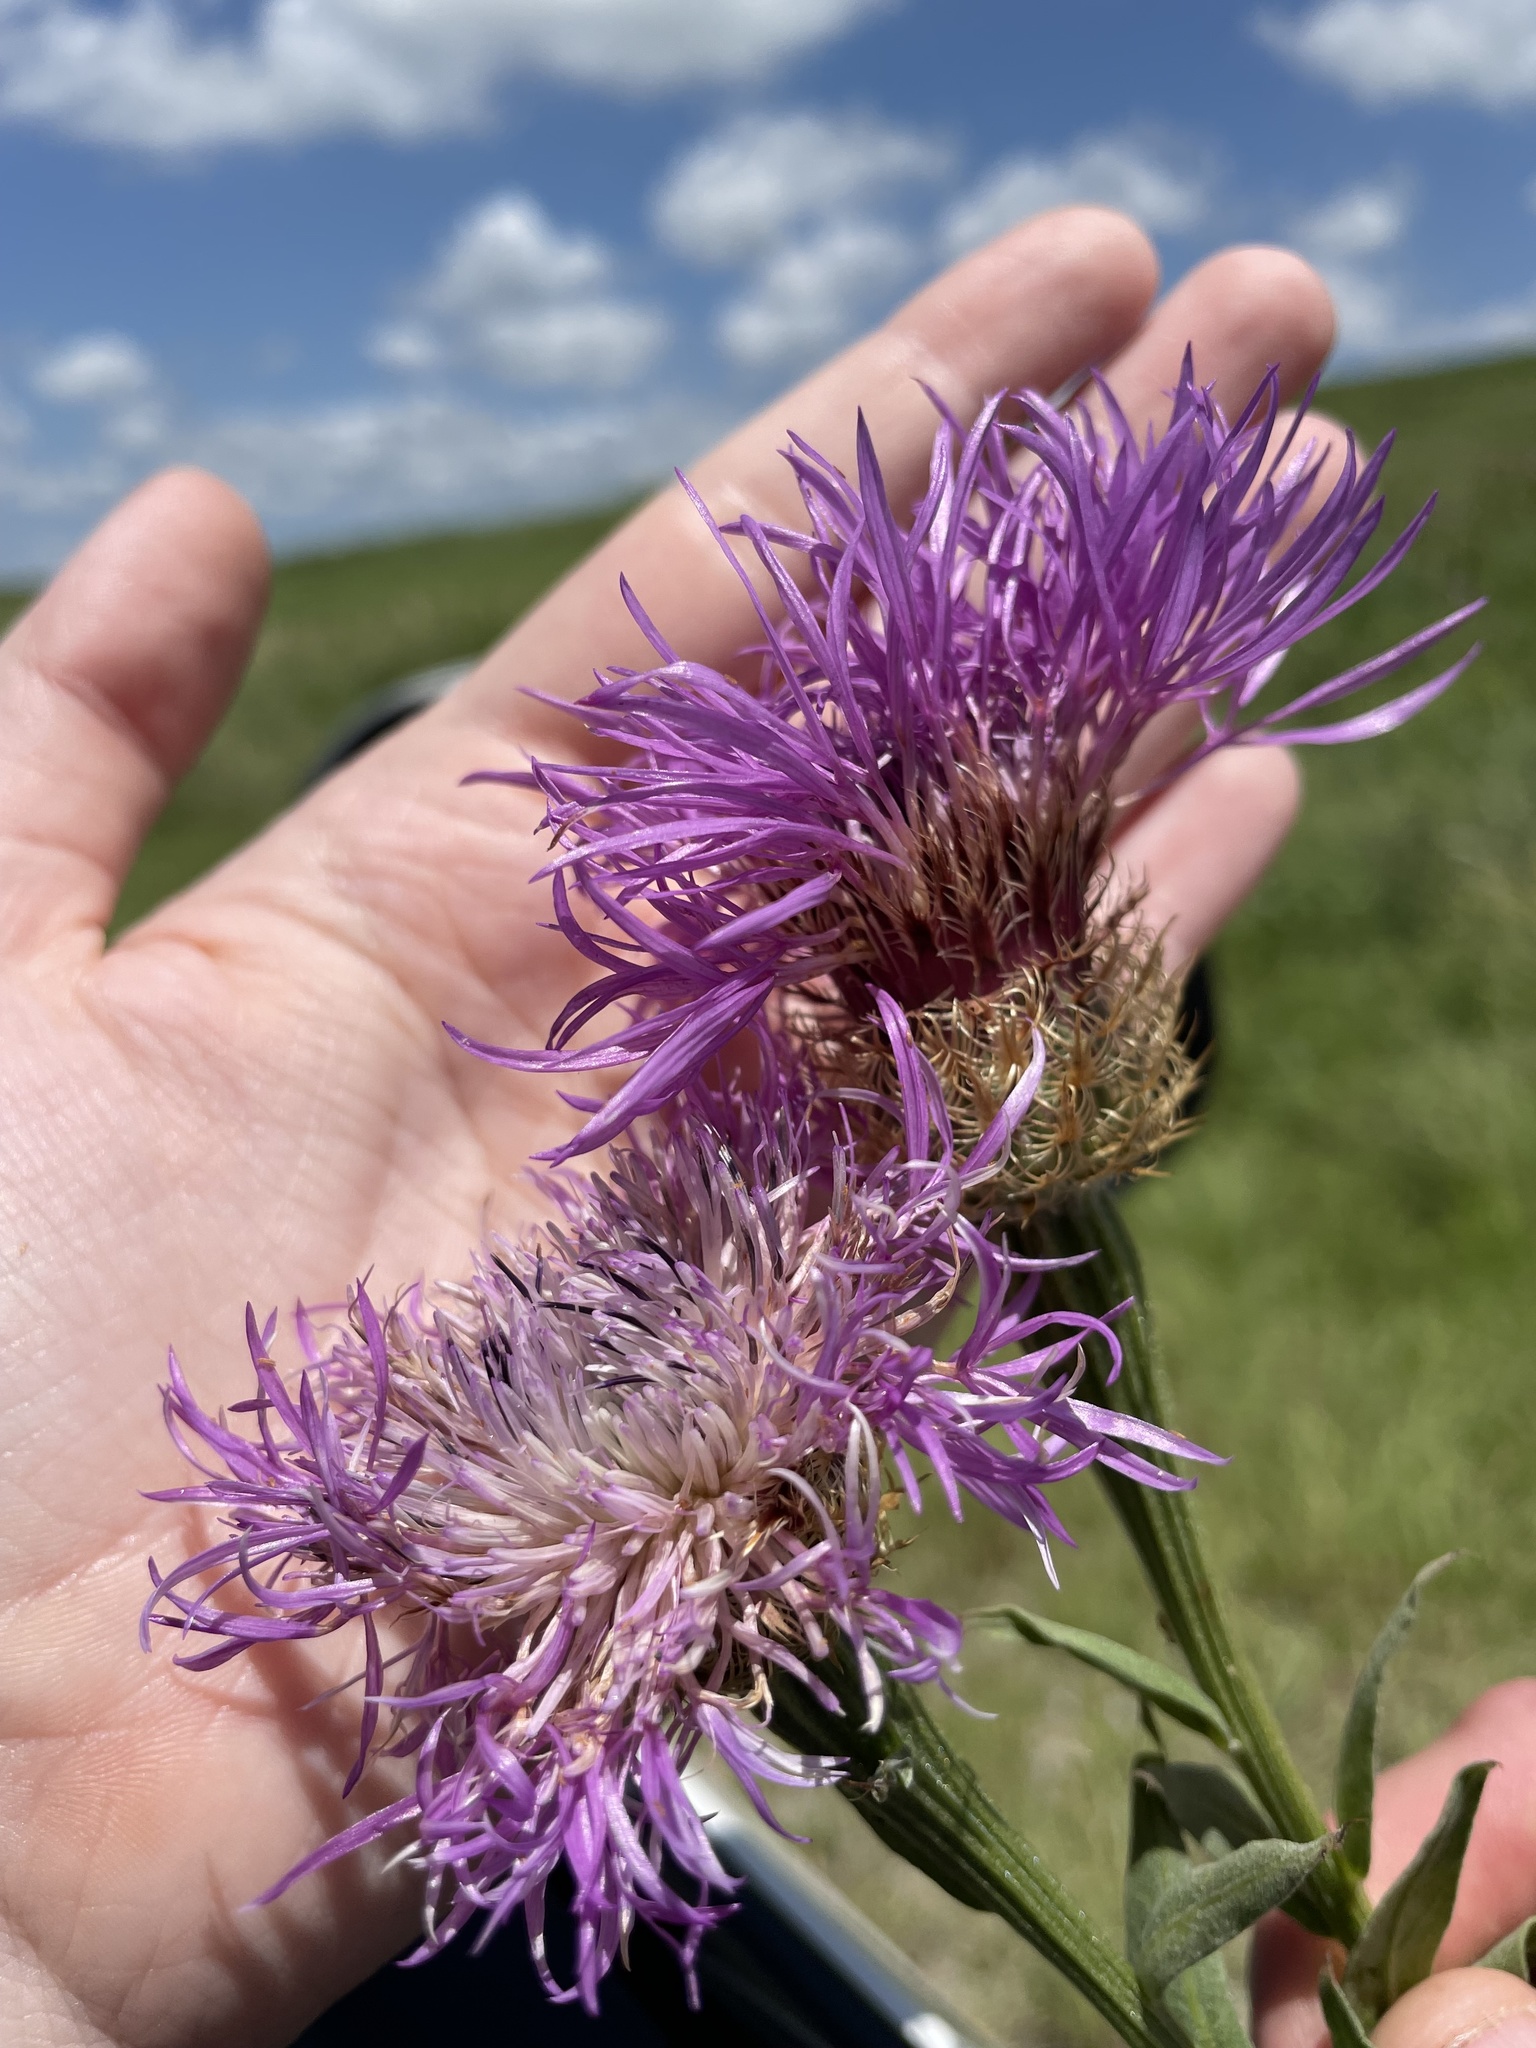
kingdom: Plantae
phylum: Tracheophyta
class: Magnoliopsida
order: Asterales
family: Asteraceae
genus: Plectocephalus
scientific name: Plectocephalus americanus
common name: American basket-flower
